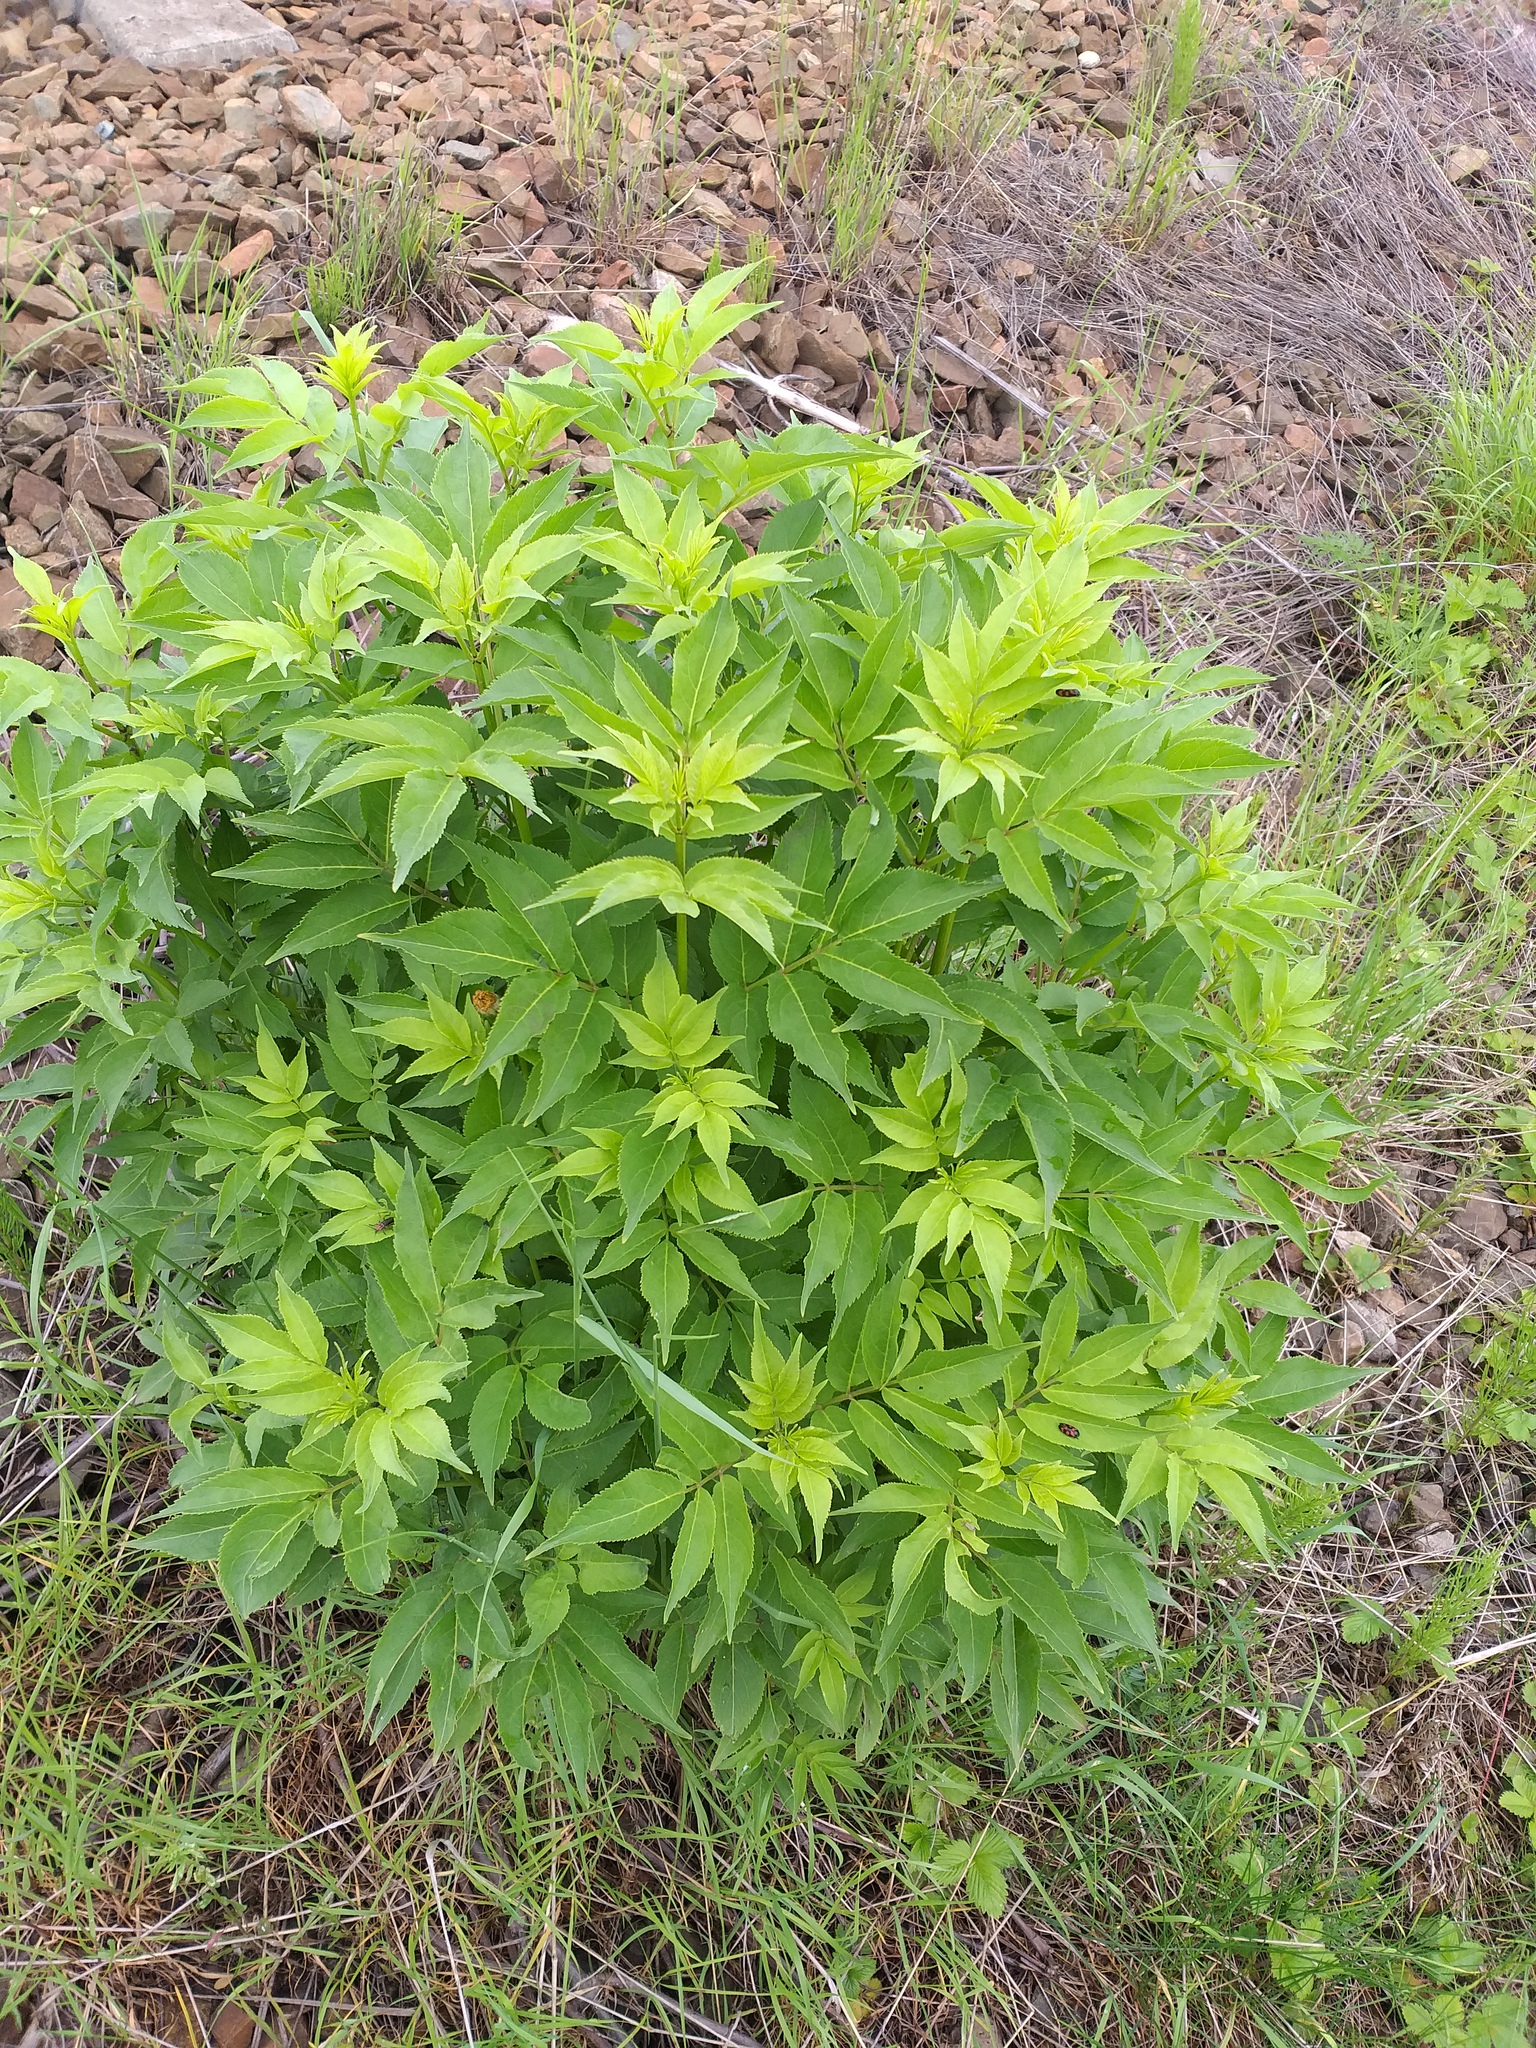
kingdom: Plantae
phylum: Tracheophyta
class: Magnoliopsida
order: Dipsacales
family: Viburnaceae
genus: Sambucus
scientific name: Sambucus racemosa
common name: Red-berried elder
